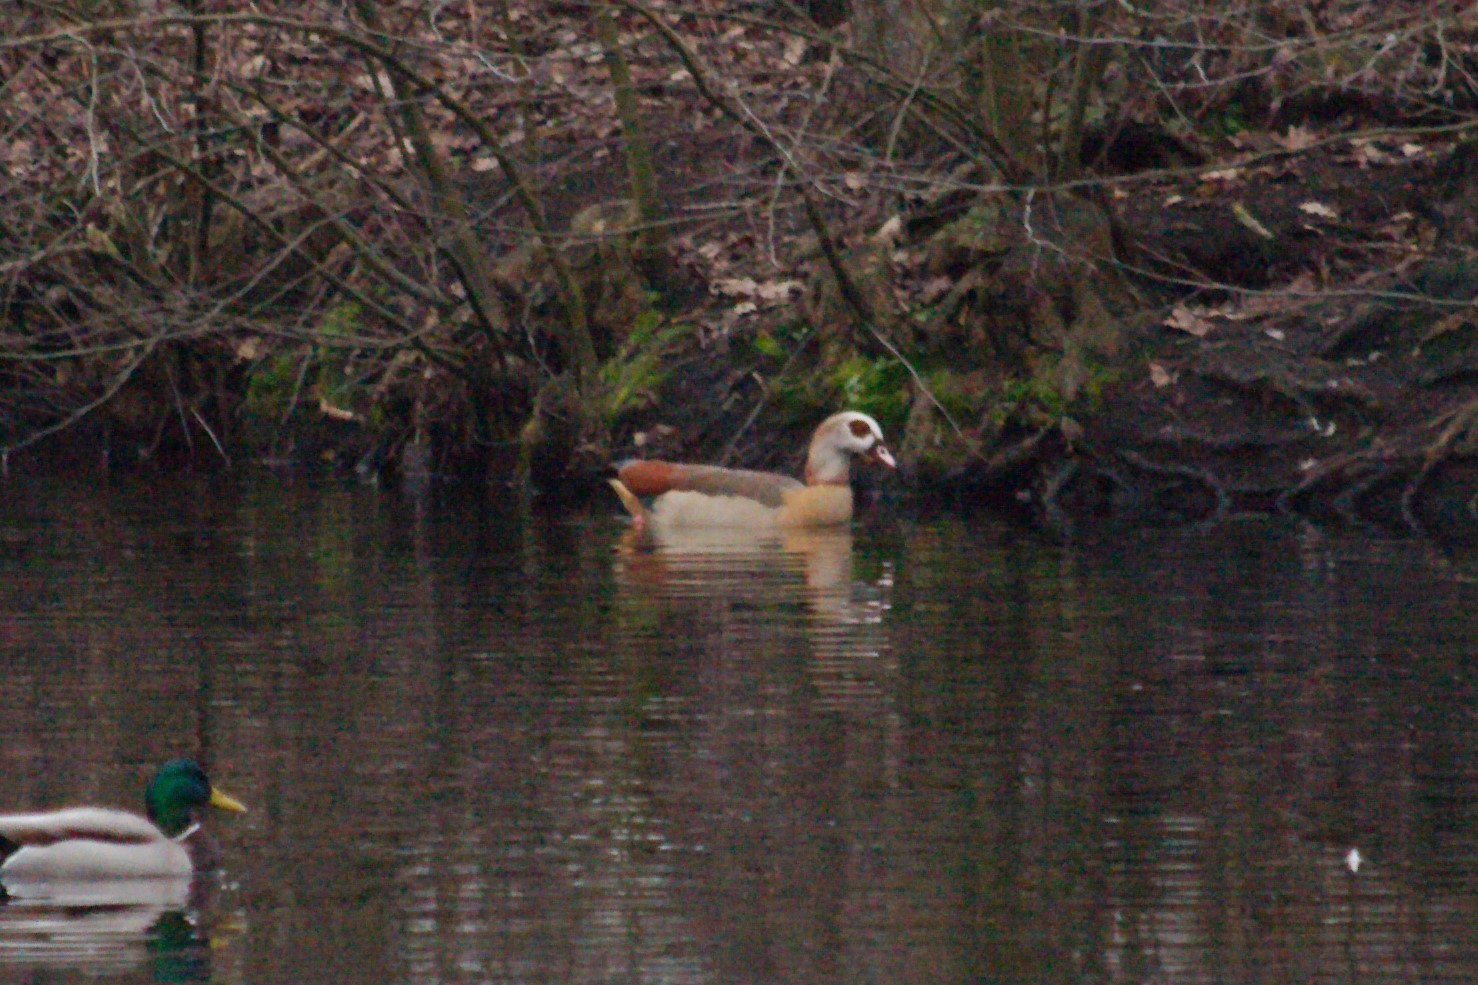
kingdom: Animalia
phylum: Chordata
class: Aves
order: Anseriformes
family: Anatidae
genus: Alopochen
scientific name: Alopochen aegyptiaca
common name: Egyptian goose
